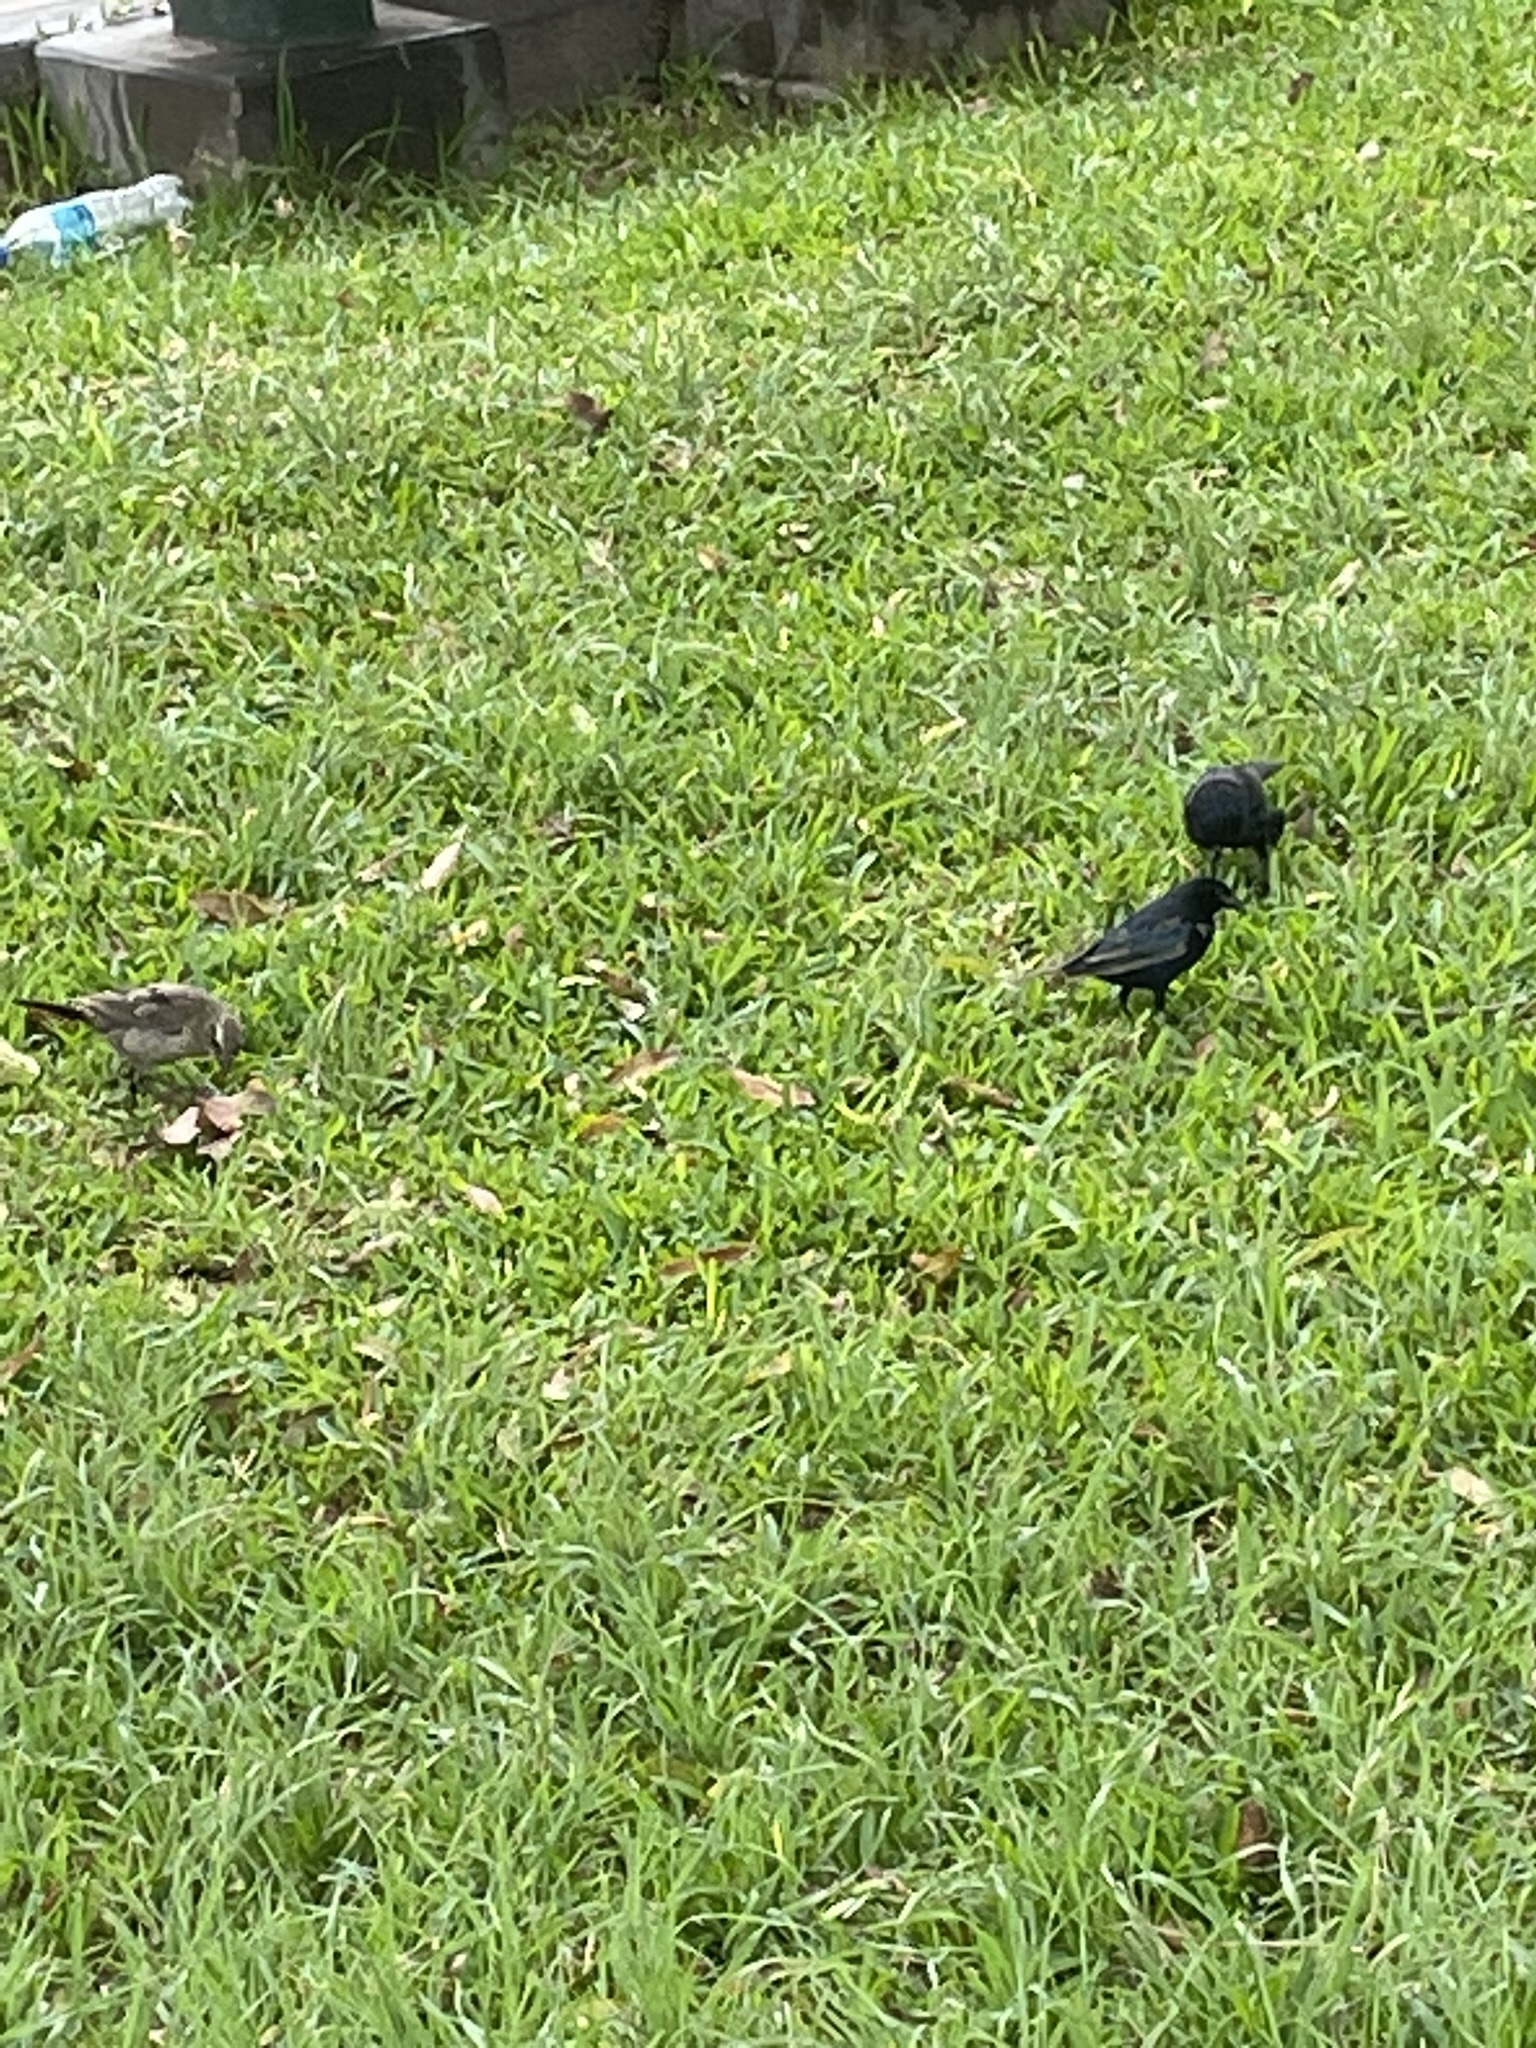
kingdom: Animalia
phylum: Chordata
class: Aves
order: Passeriformes
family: Icteridae
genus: Dives
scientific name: Dives warczewiczi
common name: Scrub blackbird
